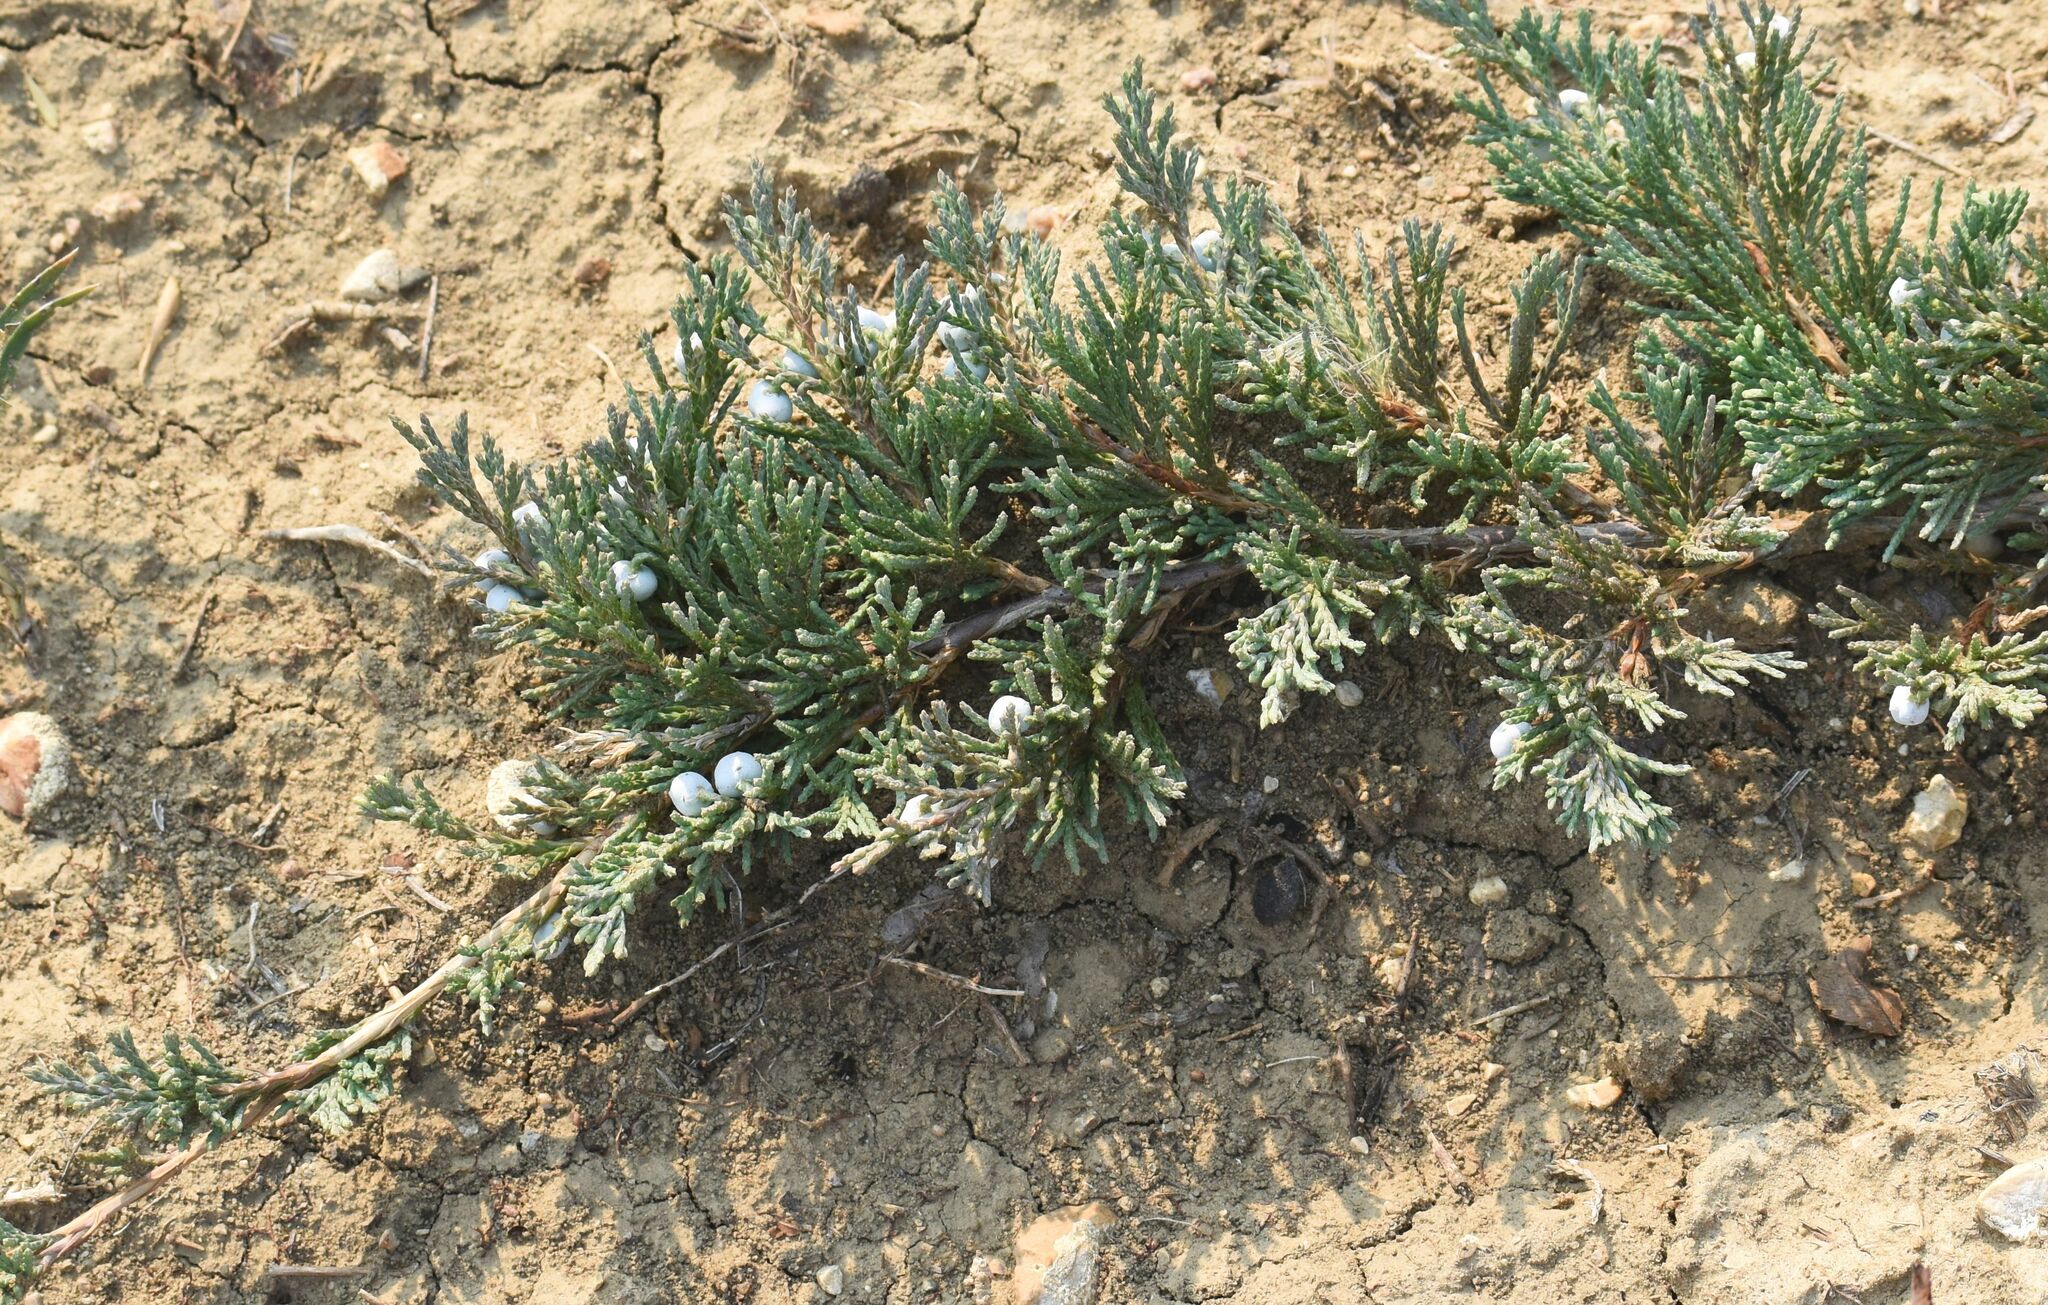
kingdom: Plantae
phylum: Tracheophyta
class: Pinopsida
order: Pinales
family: Cupressaceae
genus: Juniperus
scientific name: Juniperus horizontalis
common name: Creeping juniper
